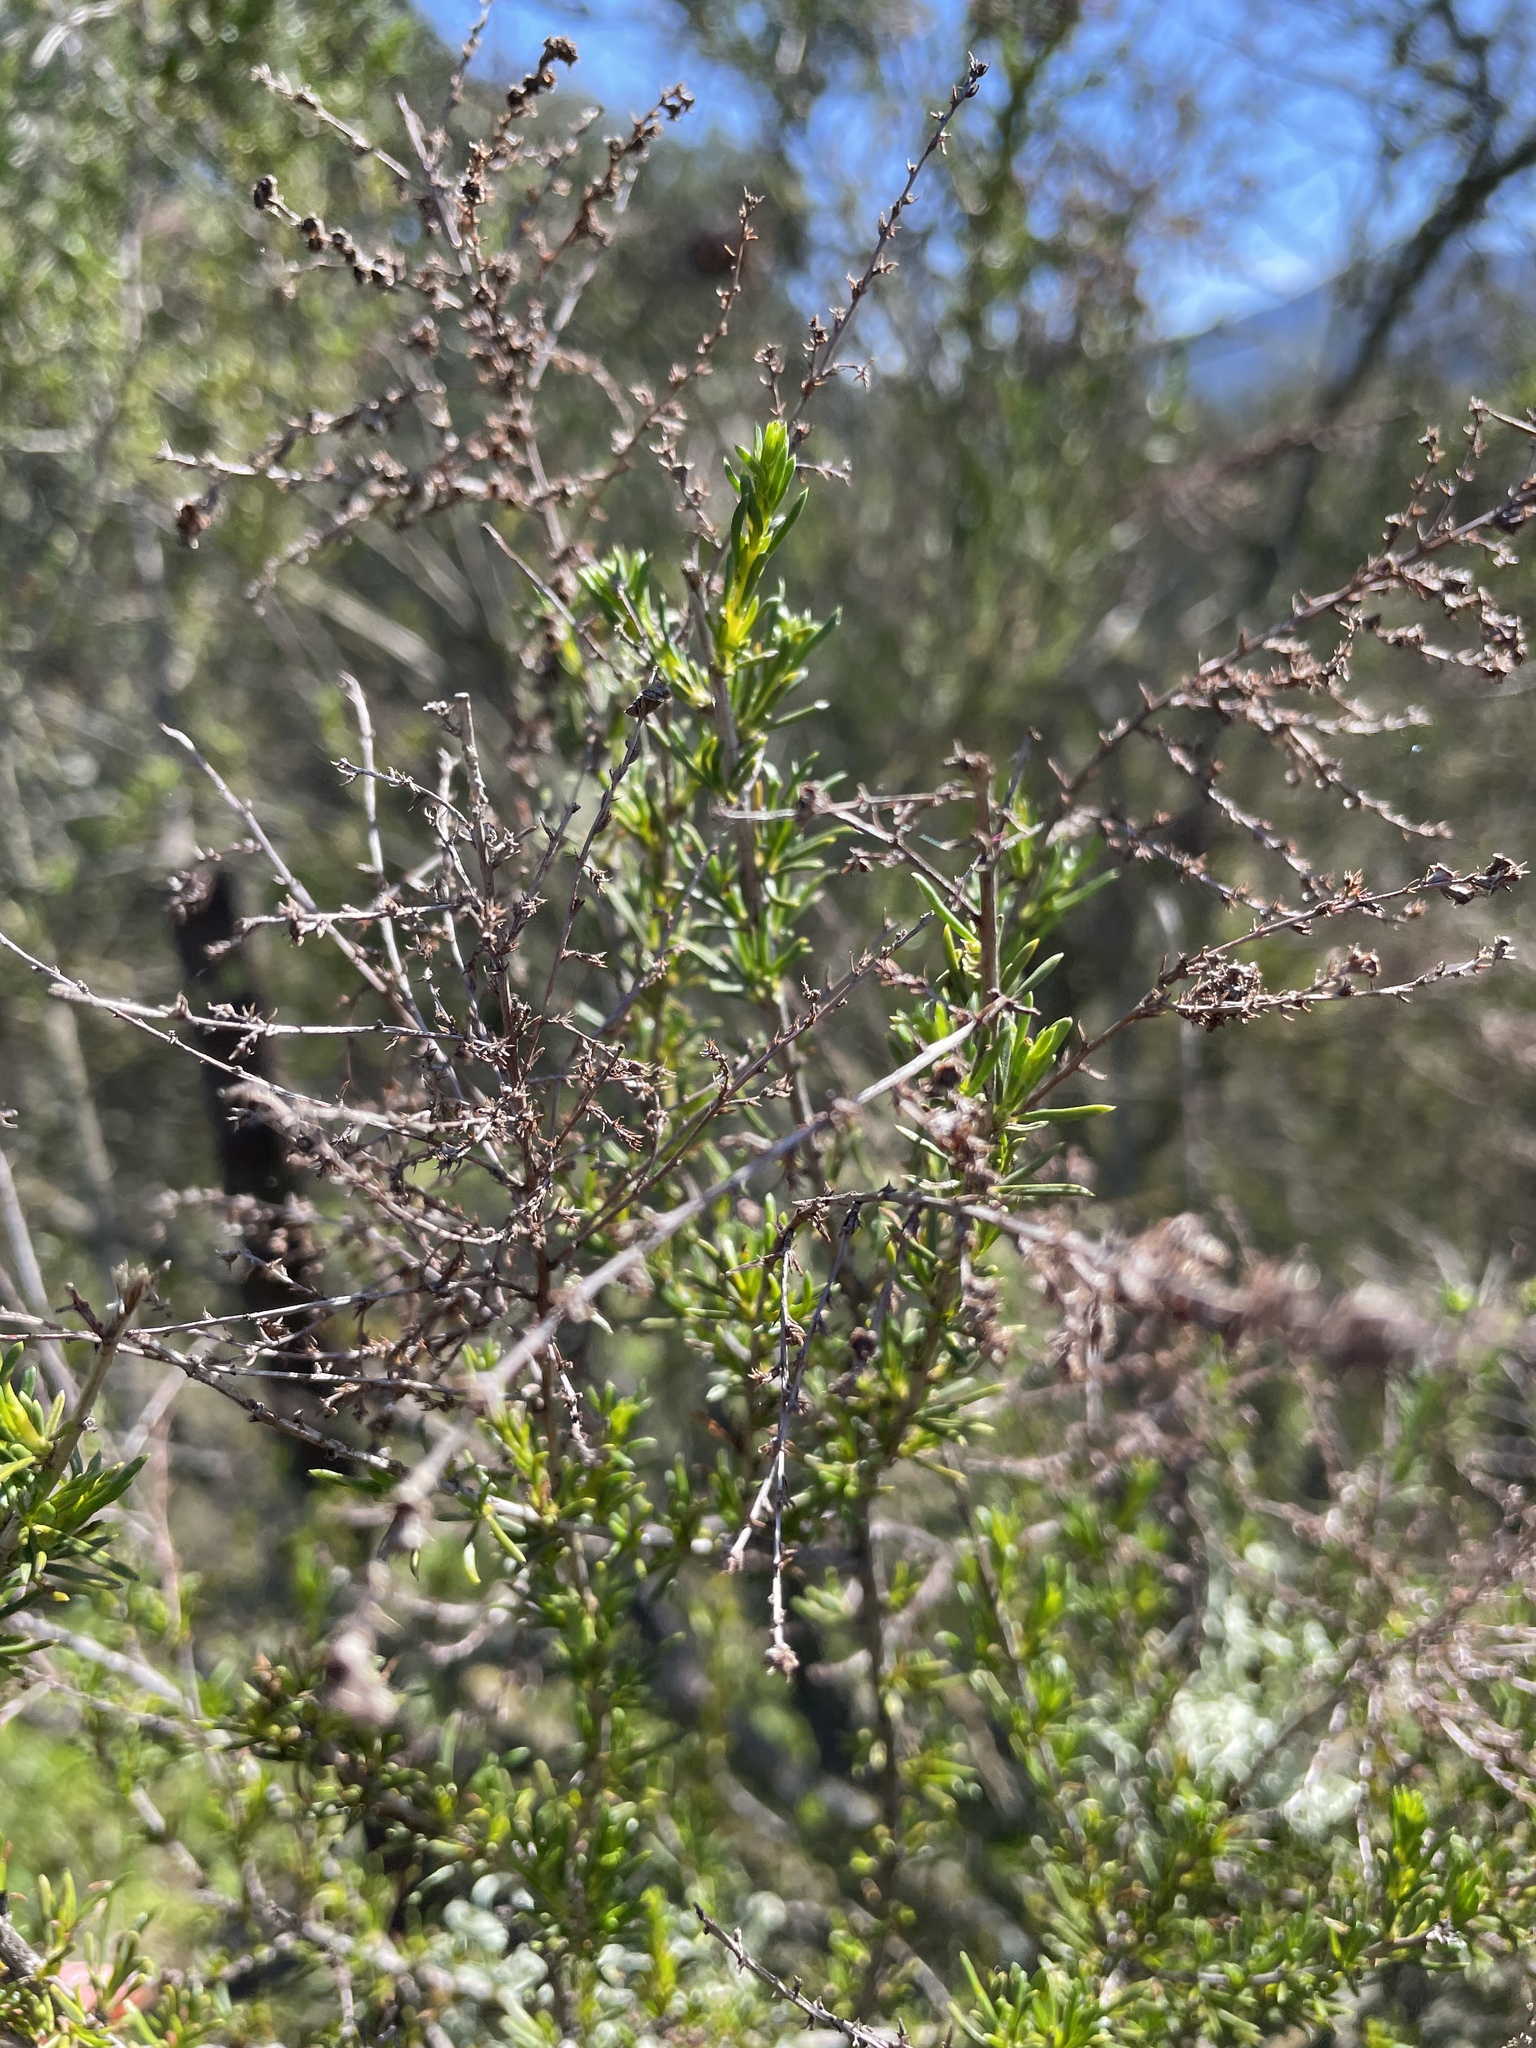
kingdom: Plantae
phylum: Tracheophyta
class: Magnoliopsida
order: Rosales
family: Rosaceae
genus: Adenostoma
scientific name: Adenostoma fasciculatum
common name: Chamise
